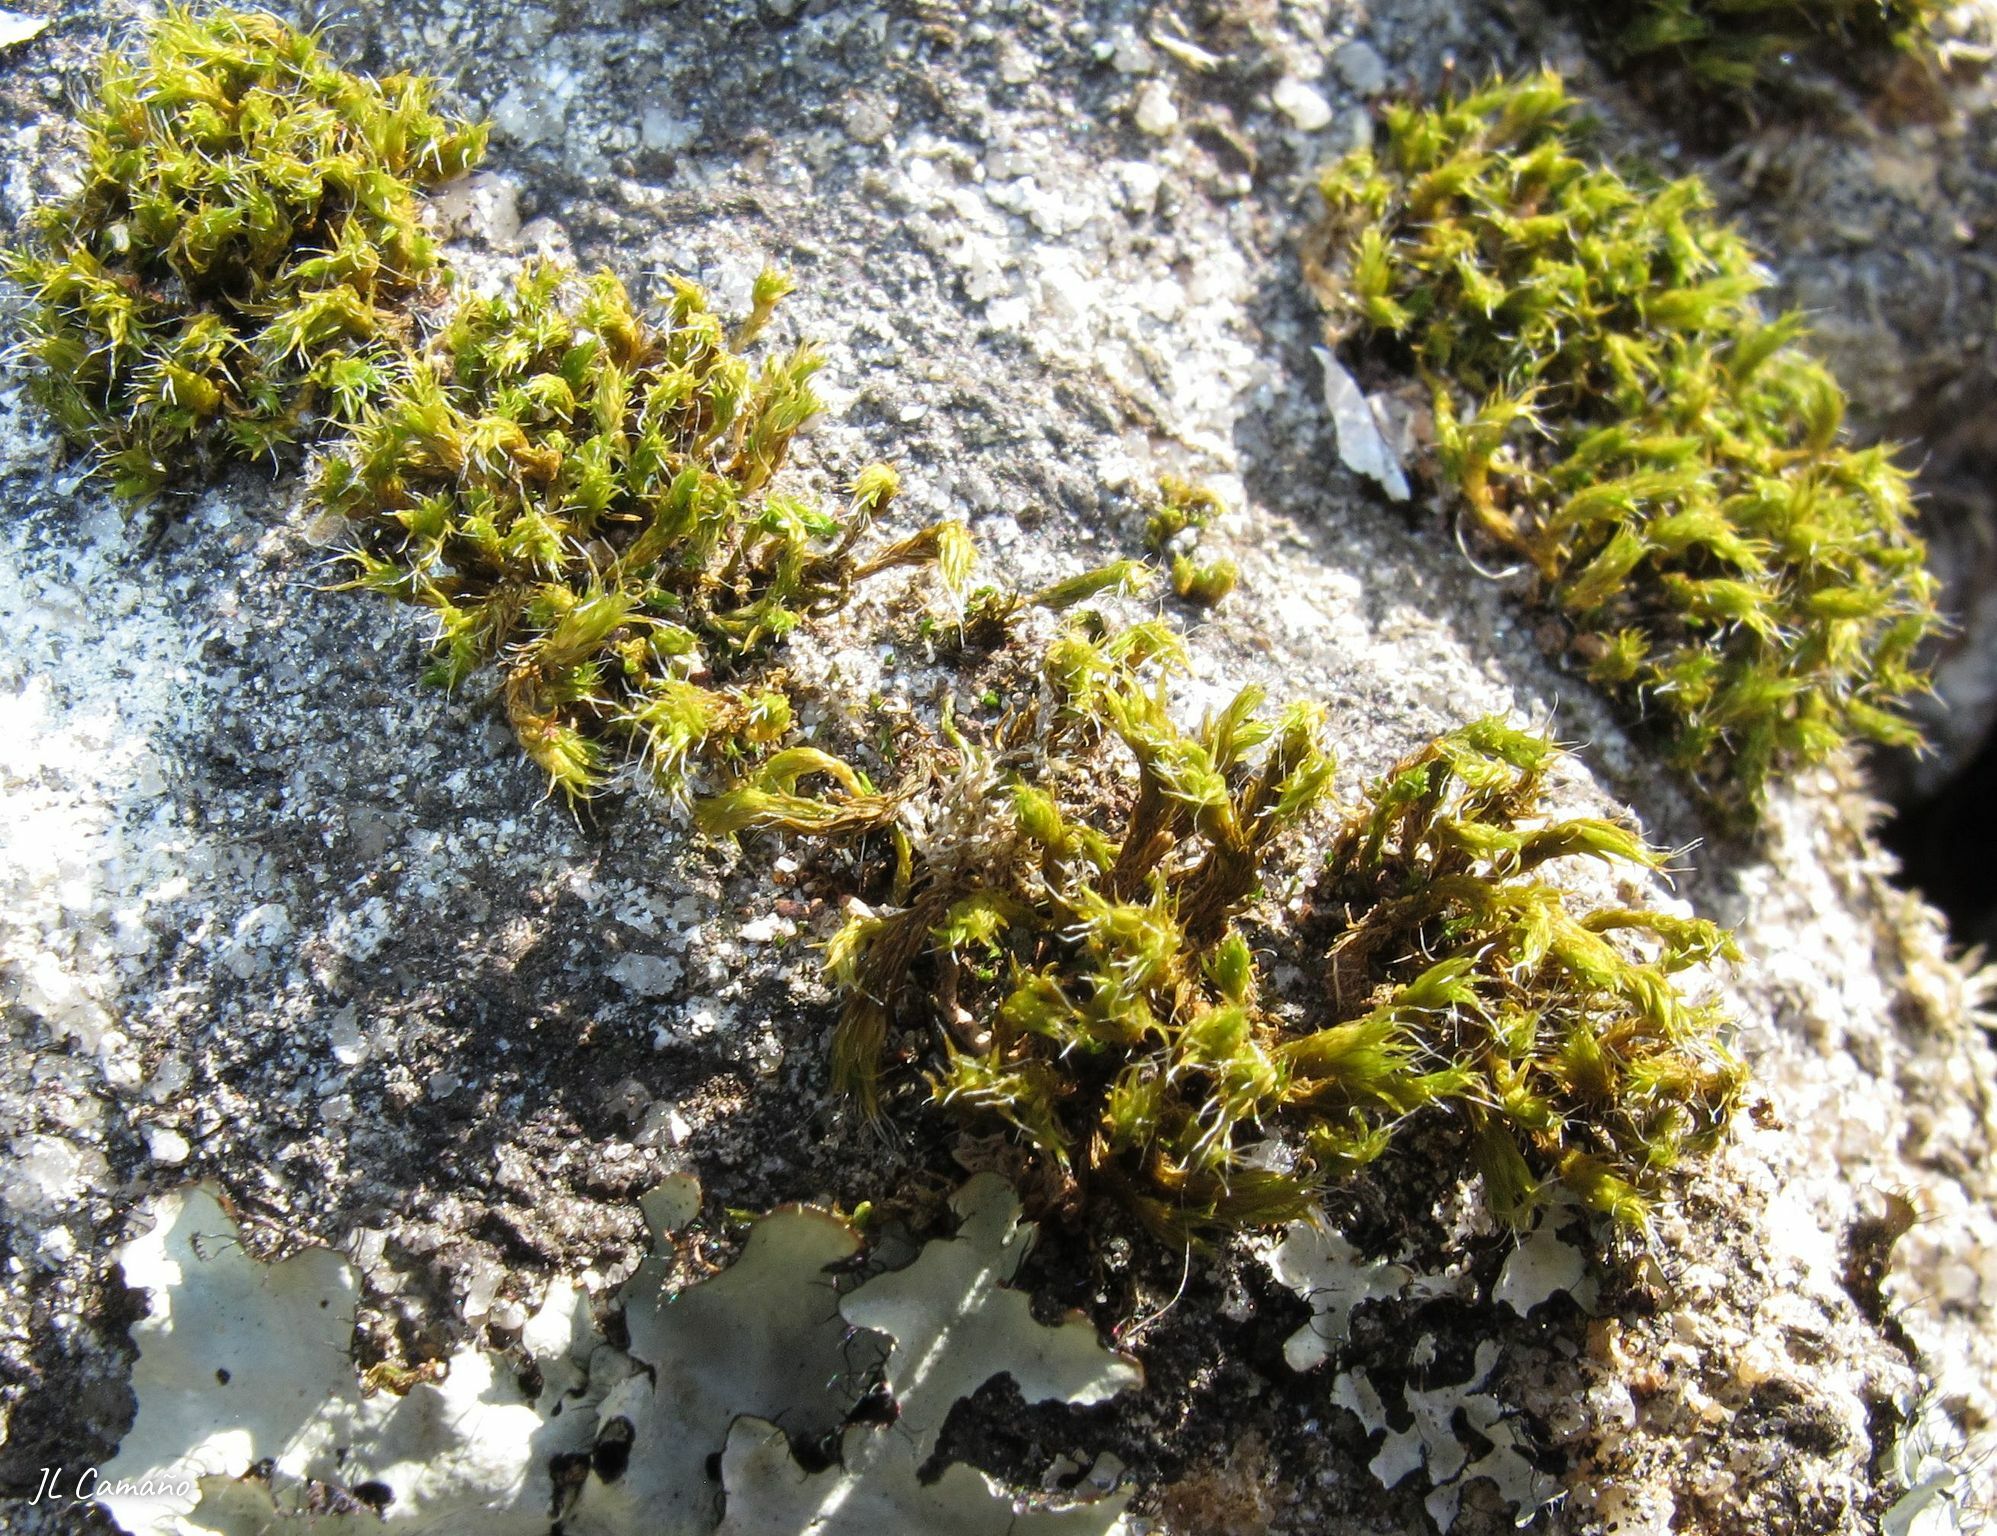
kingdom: Plantae
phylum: Bryophyta
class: Bryopsida
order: Grimmiales
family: Grimmiaceae
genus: Grimmia
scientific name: Grimmia lisae
